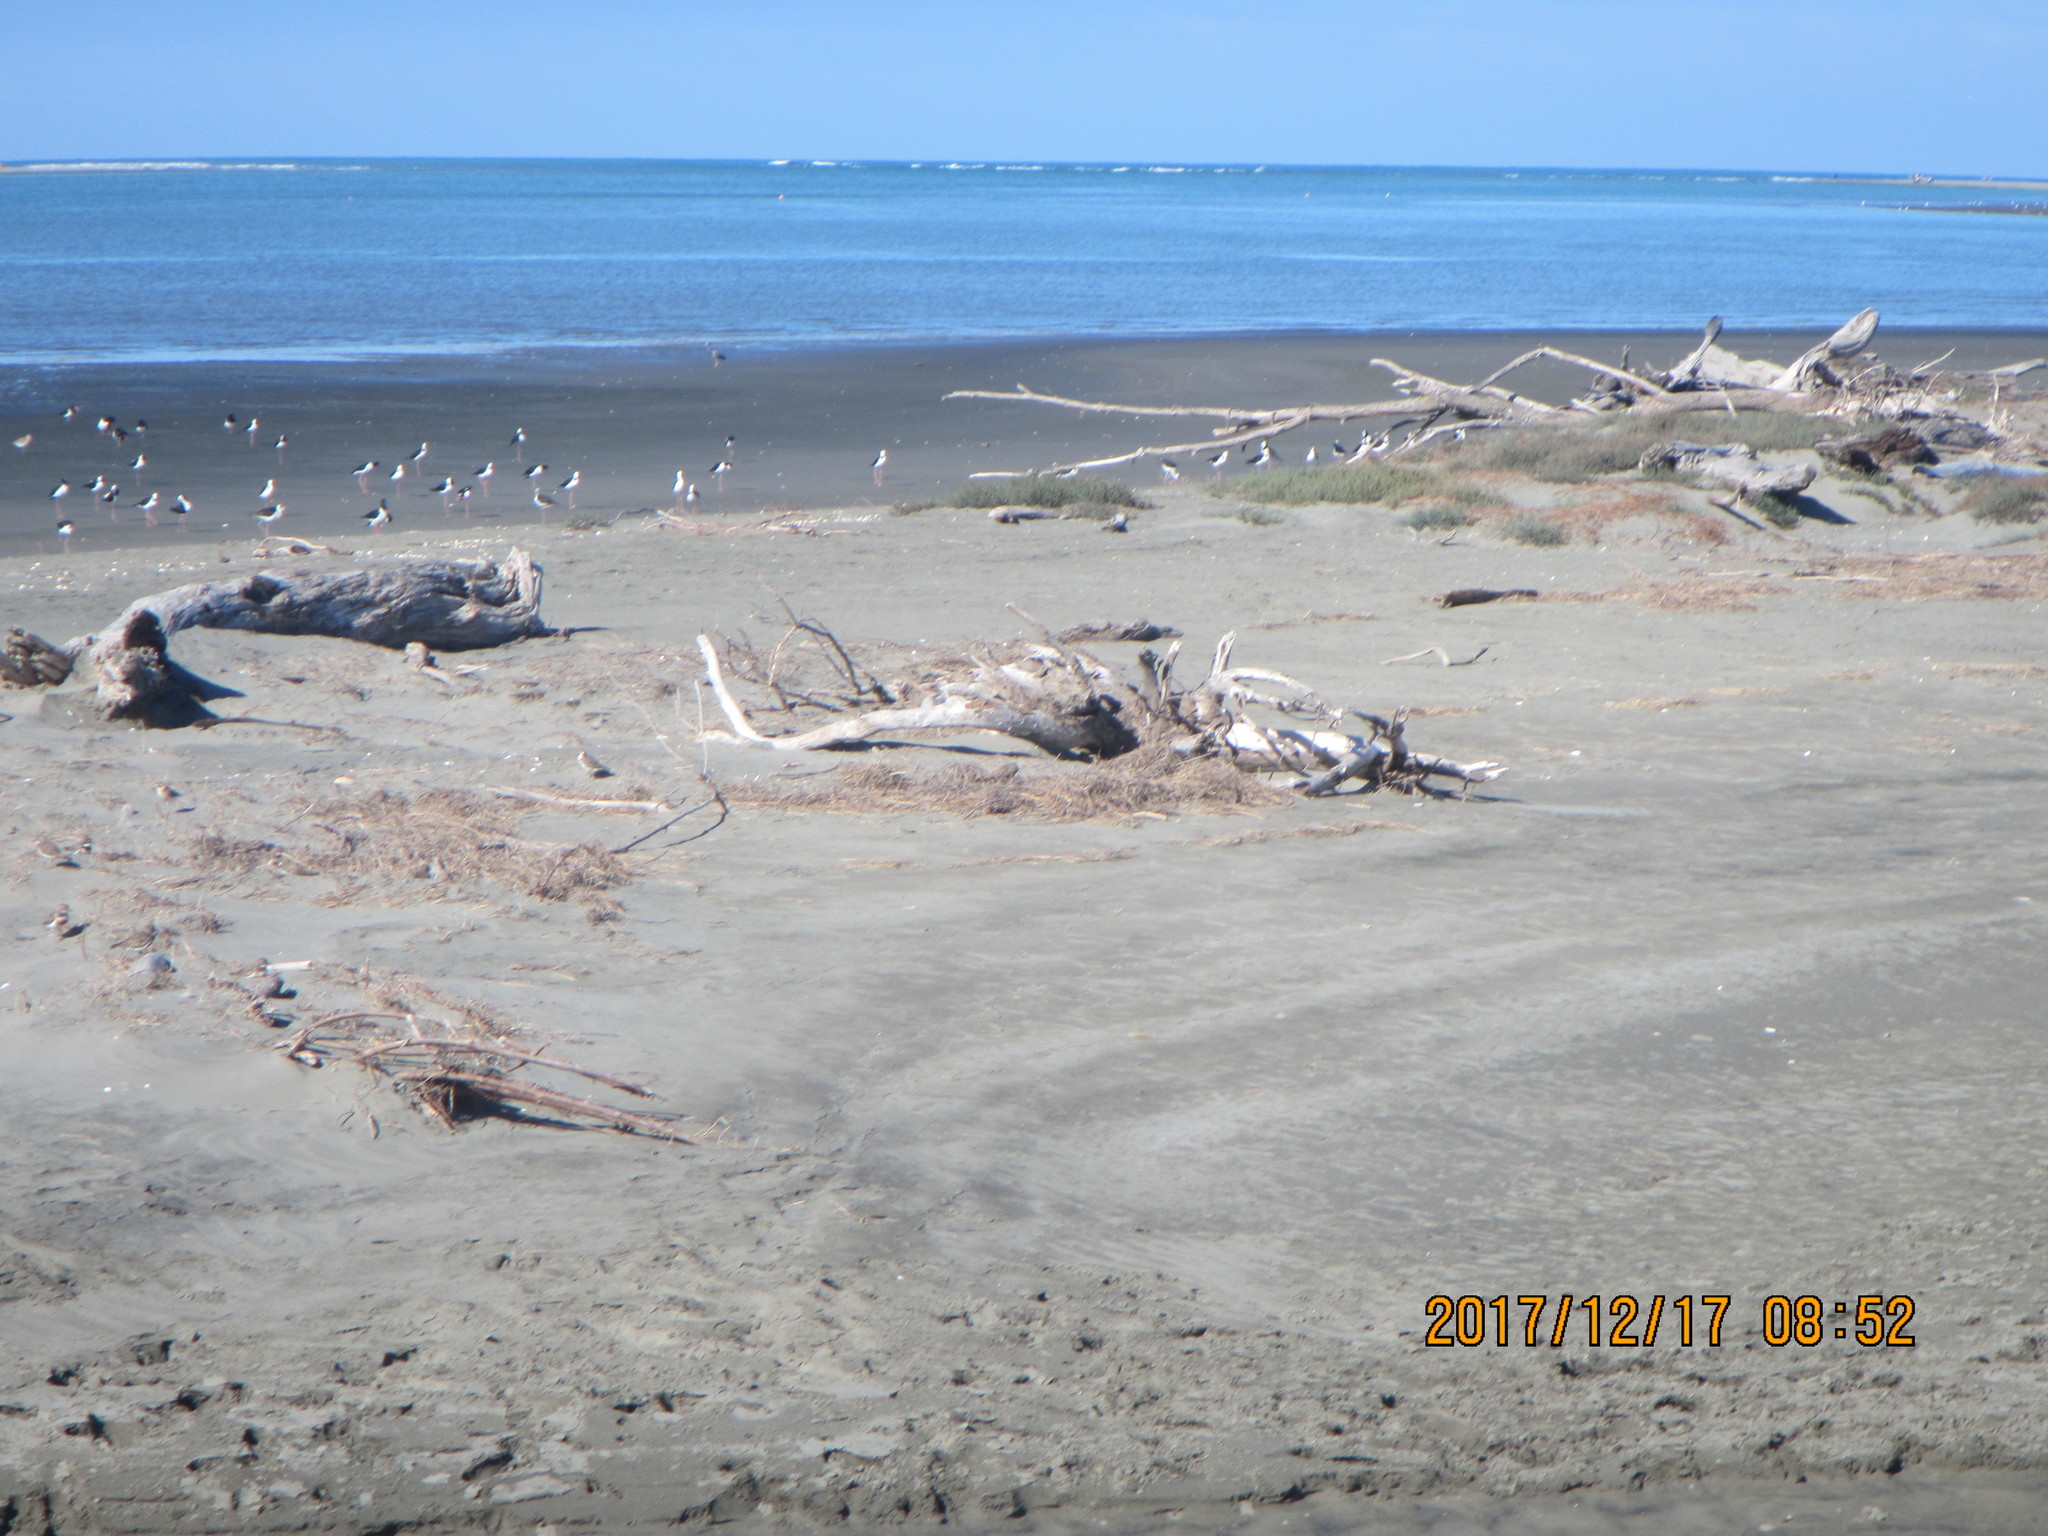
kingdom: Animalia
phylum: Chordata
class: Aves
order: Charadriiformes
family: Recurvirostridae
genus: Himantopus
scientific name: Himantopus leucocephalus
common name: White-headed stilt
